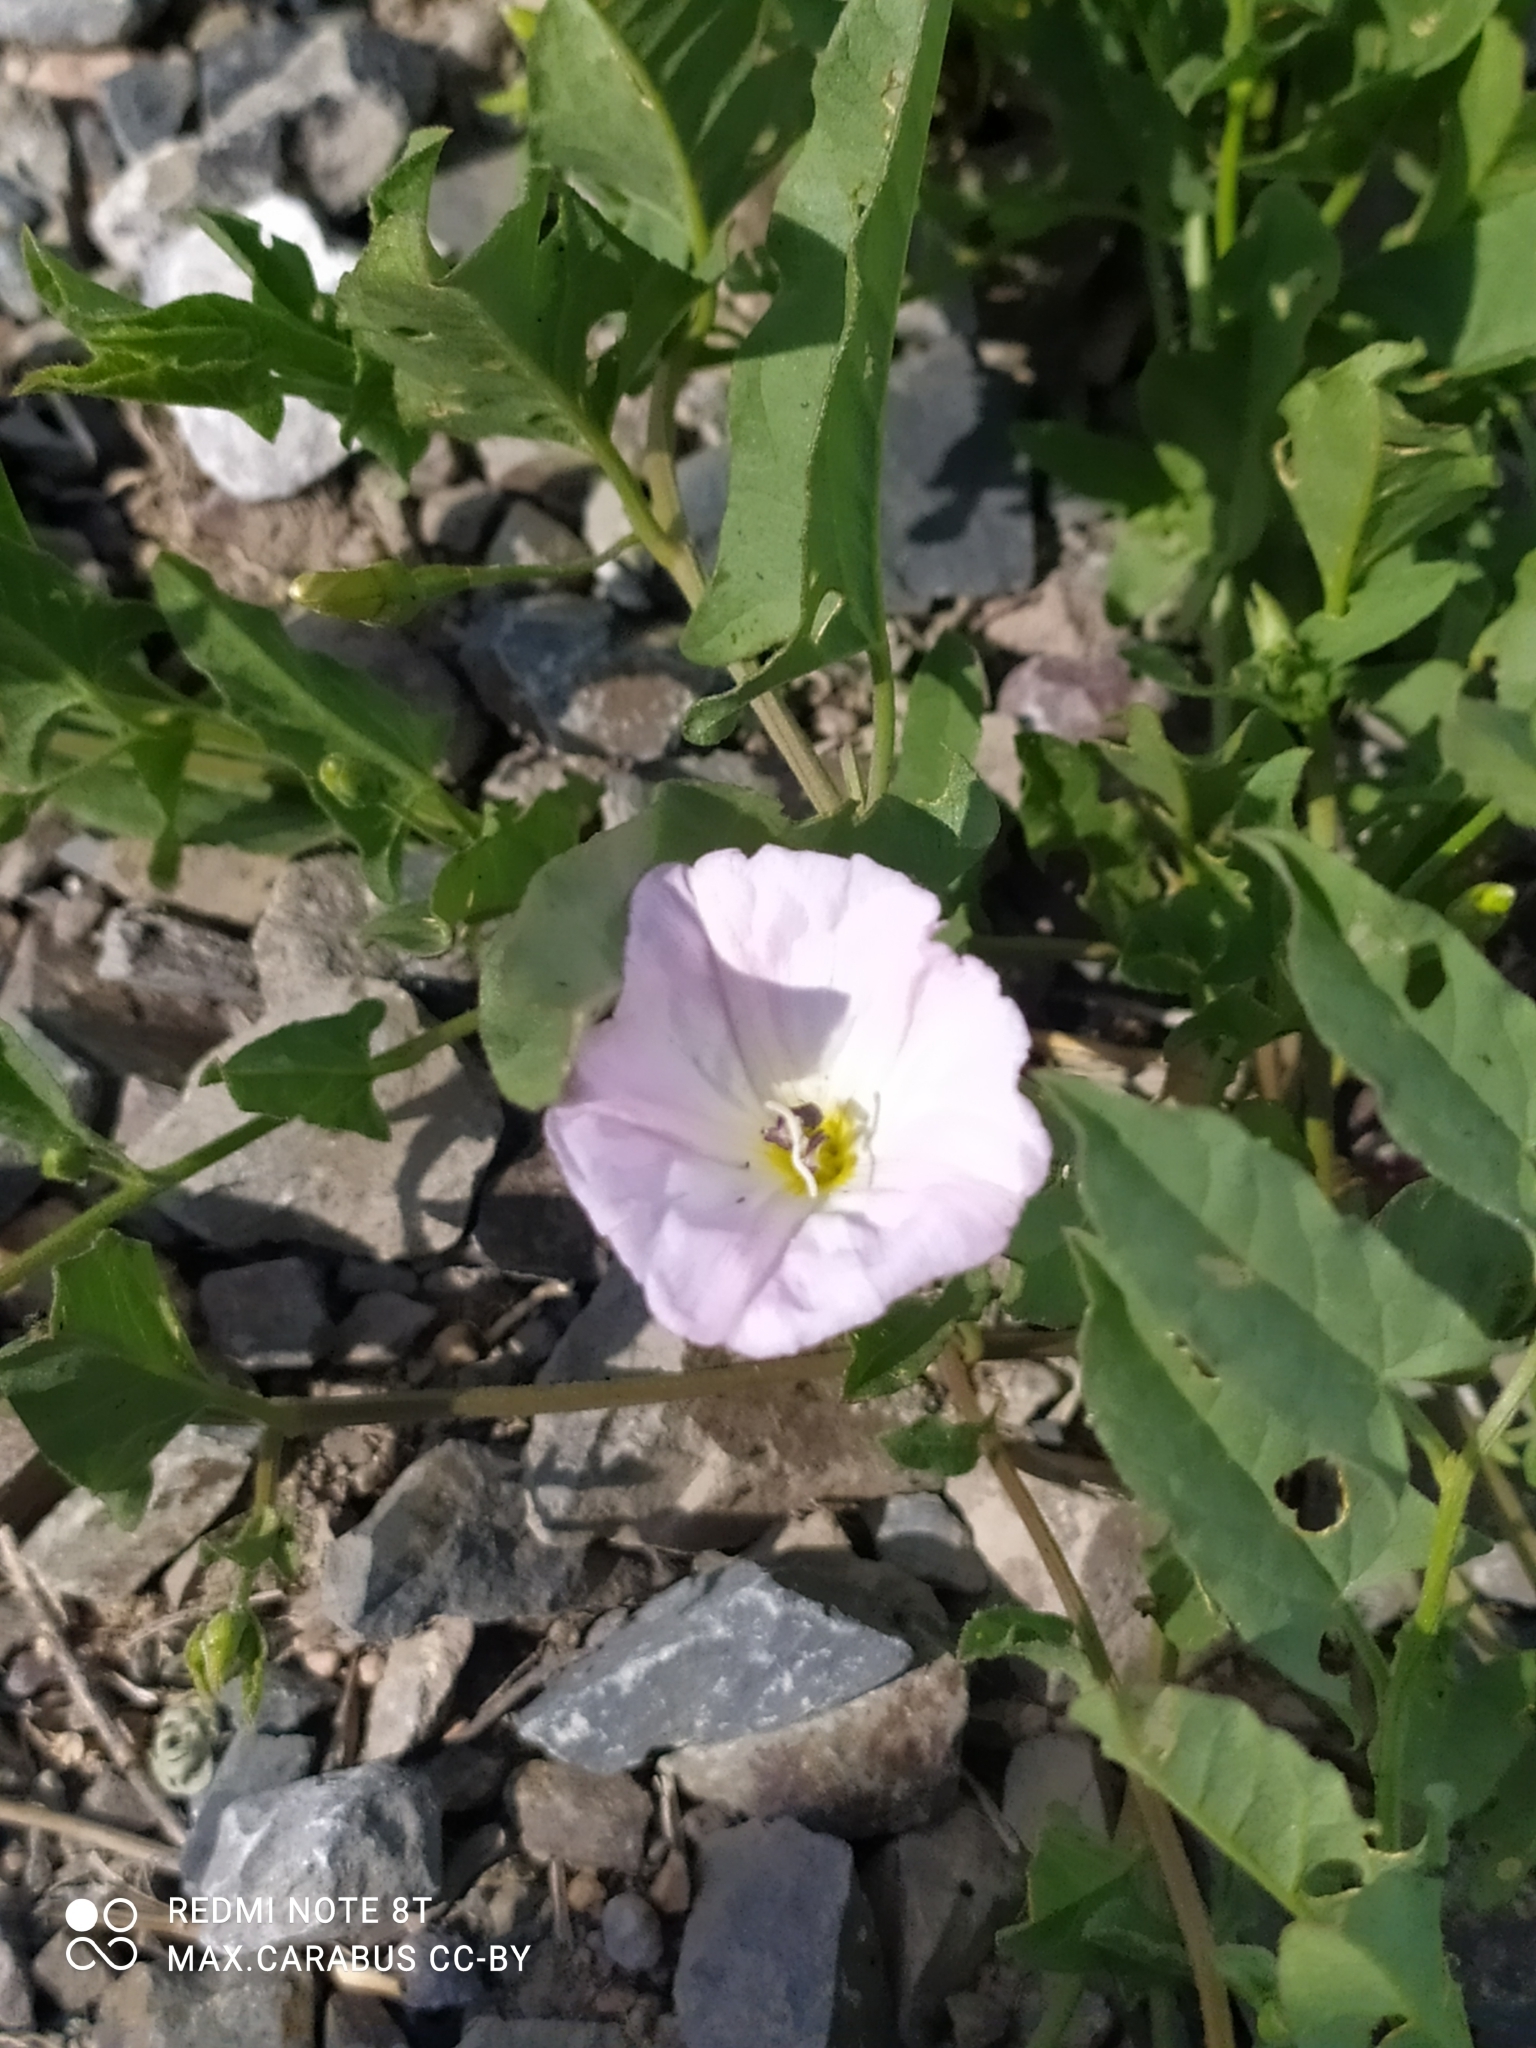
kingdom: Plantae
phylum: Tracheophyta
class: Magnoliopsida
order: Solanales
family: Convolvulaceae
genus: Convolvulus
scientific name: Convolvulus arvensis
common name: Field bindweed
